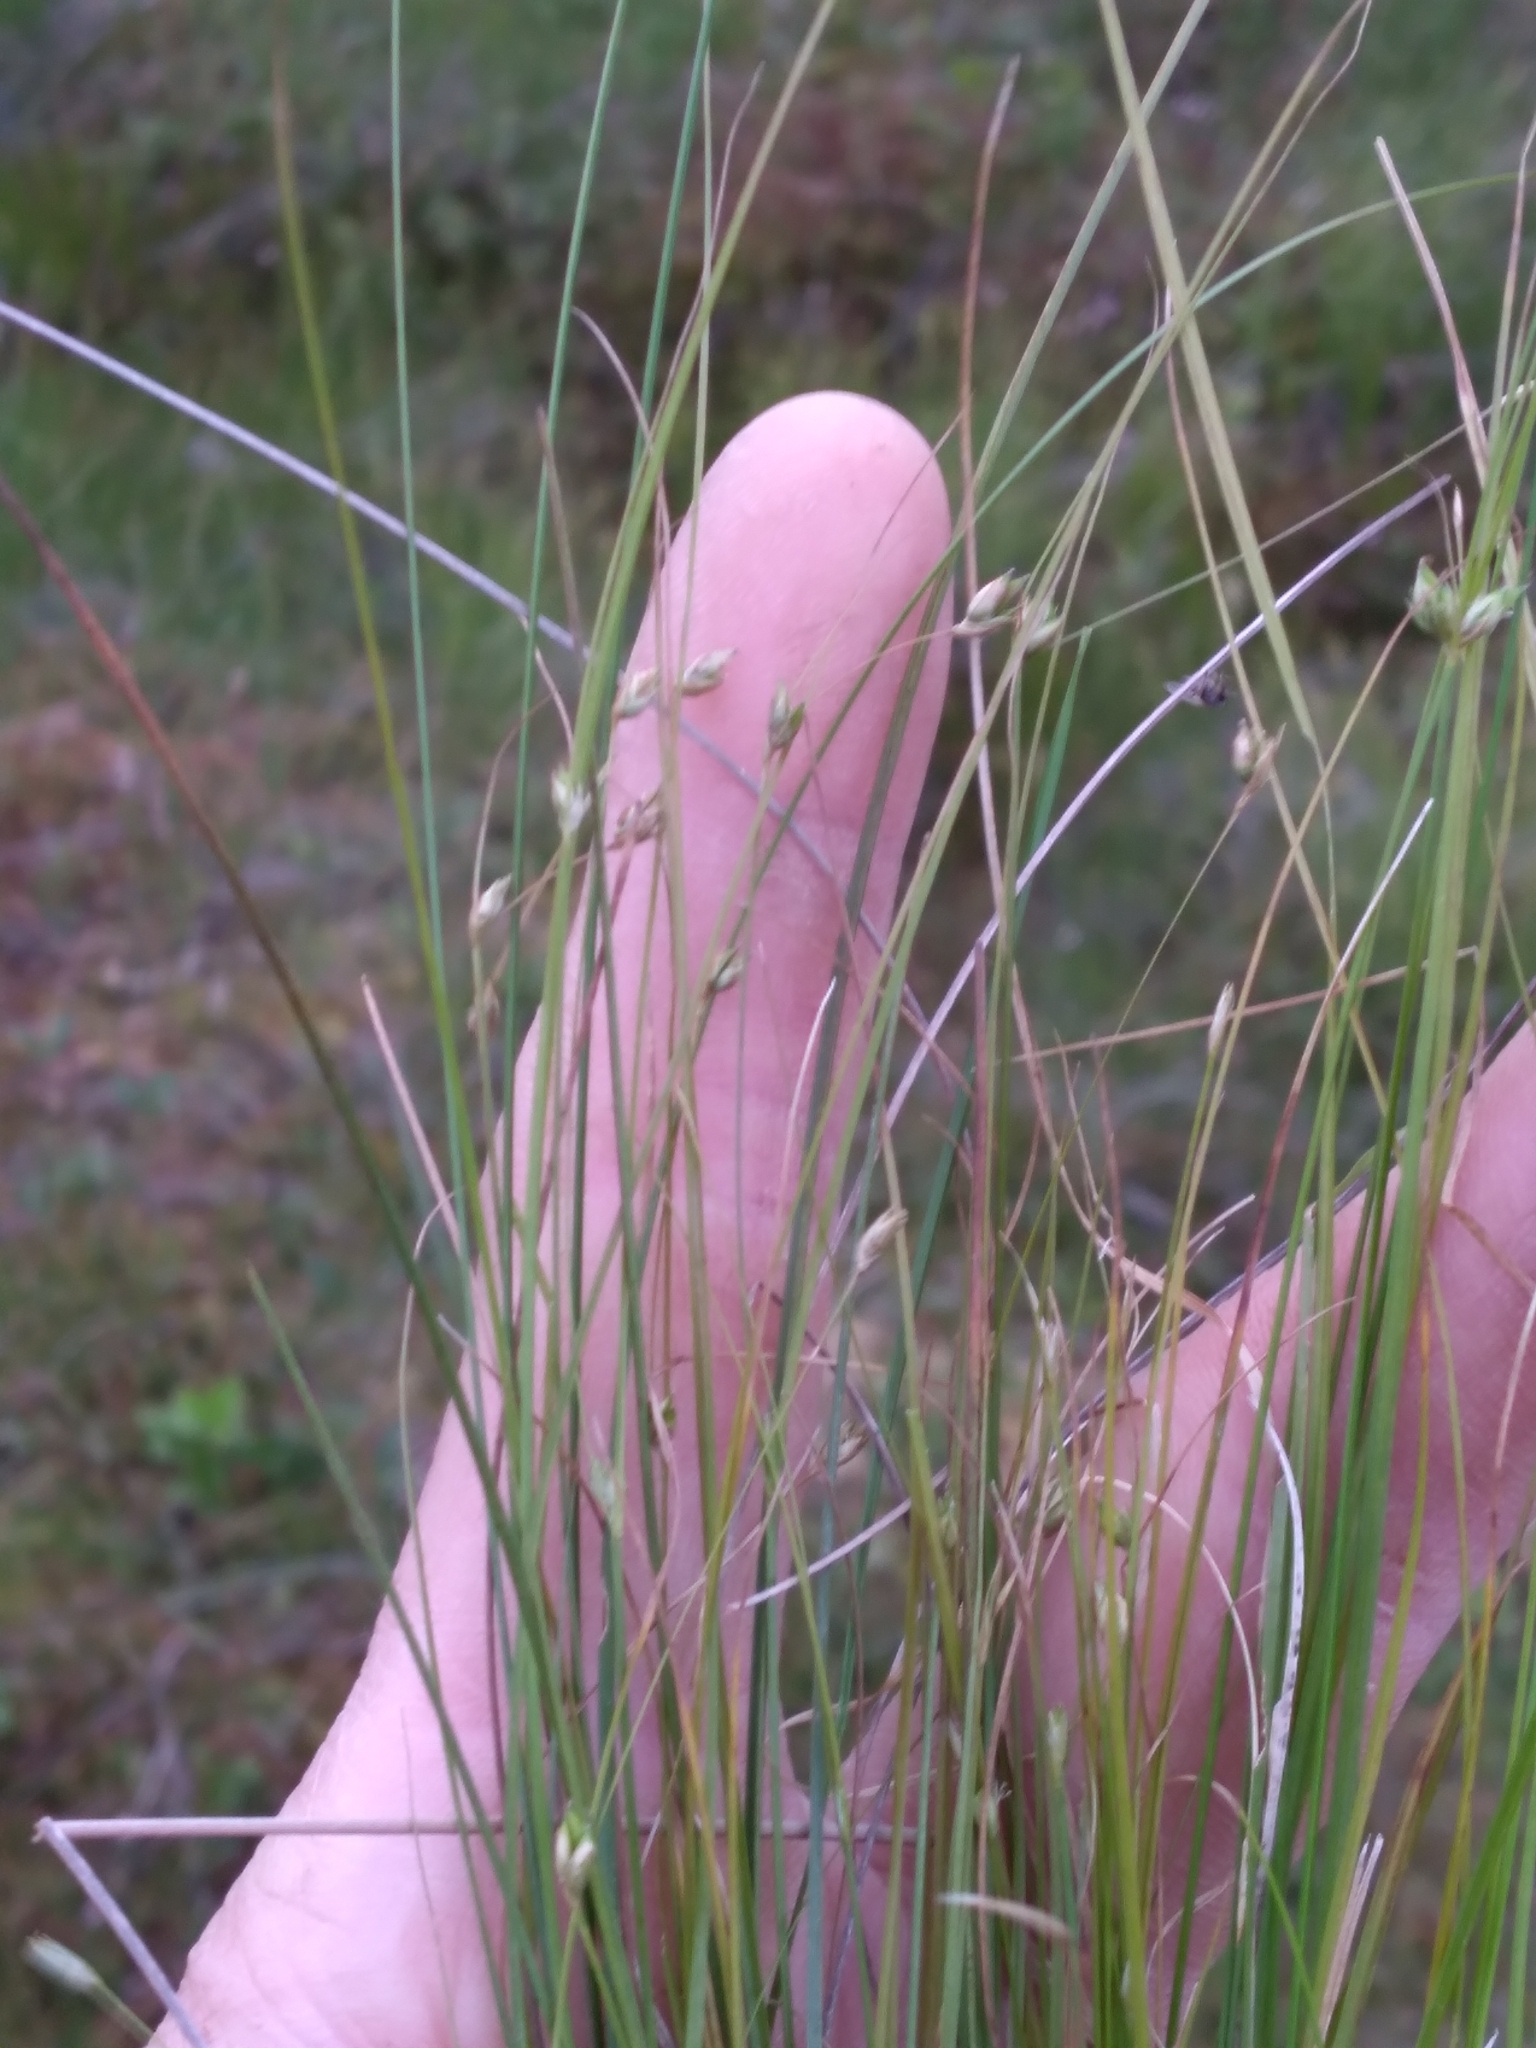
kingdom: Plantae
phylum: Tracheophyta
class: Liliopsida
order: Poales
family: Cyperaceae
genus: Carex
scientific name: Carex trisperma
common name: Three-seeded sedge
